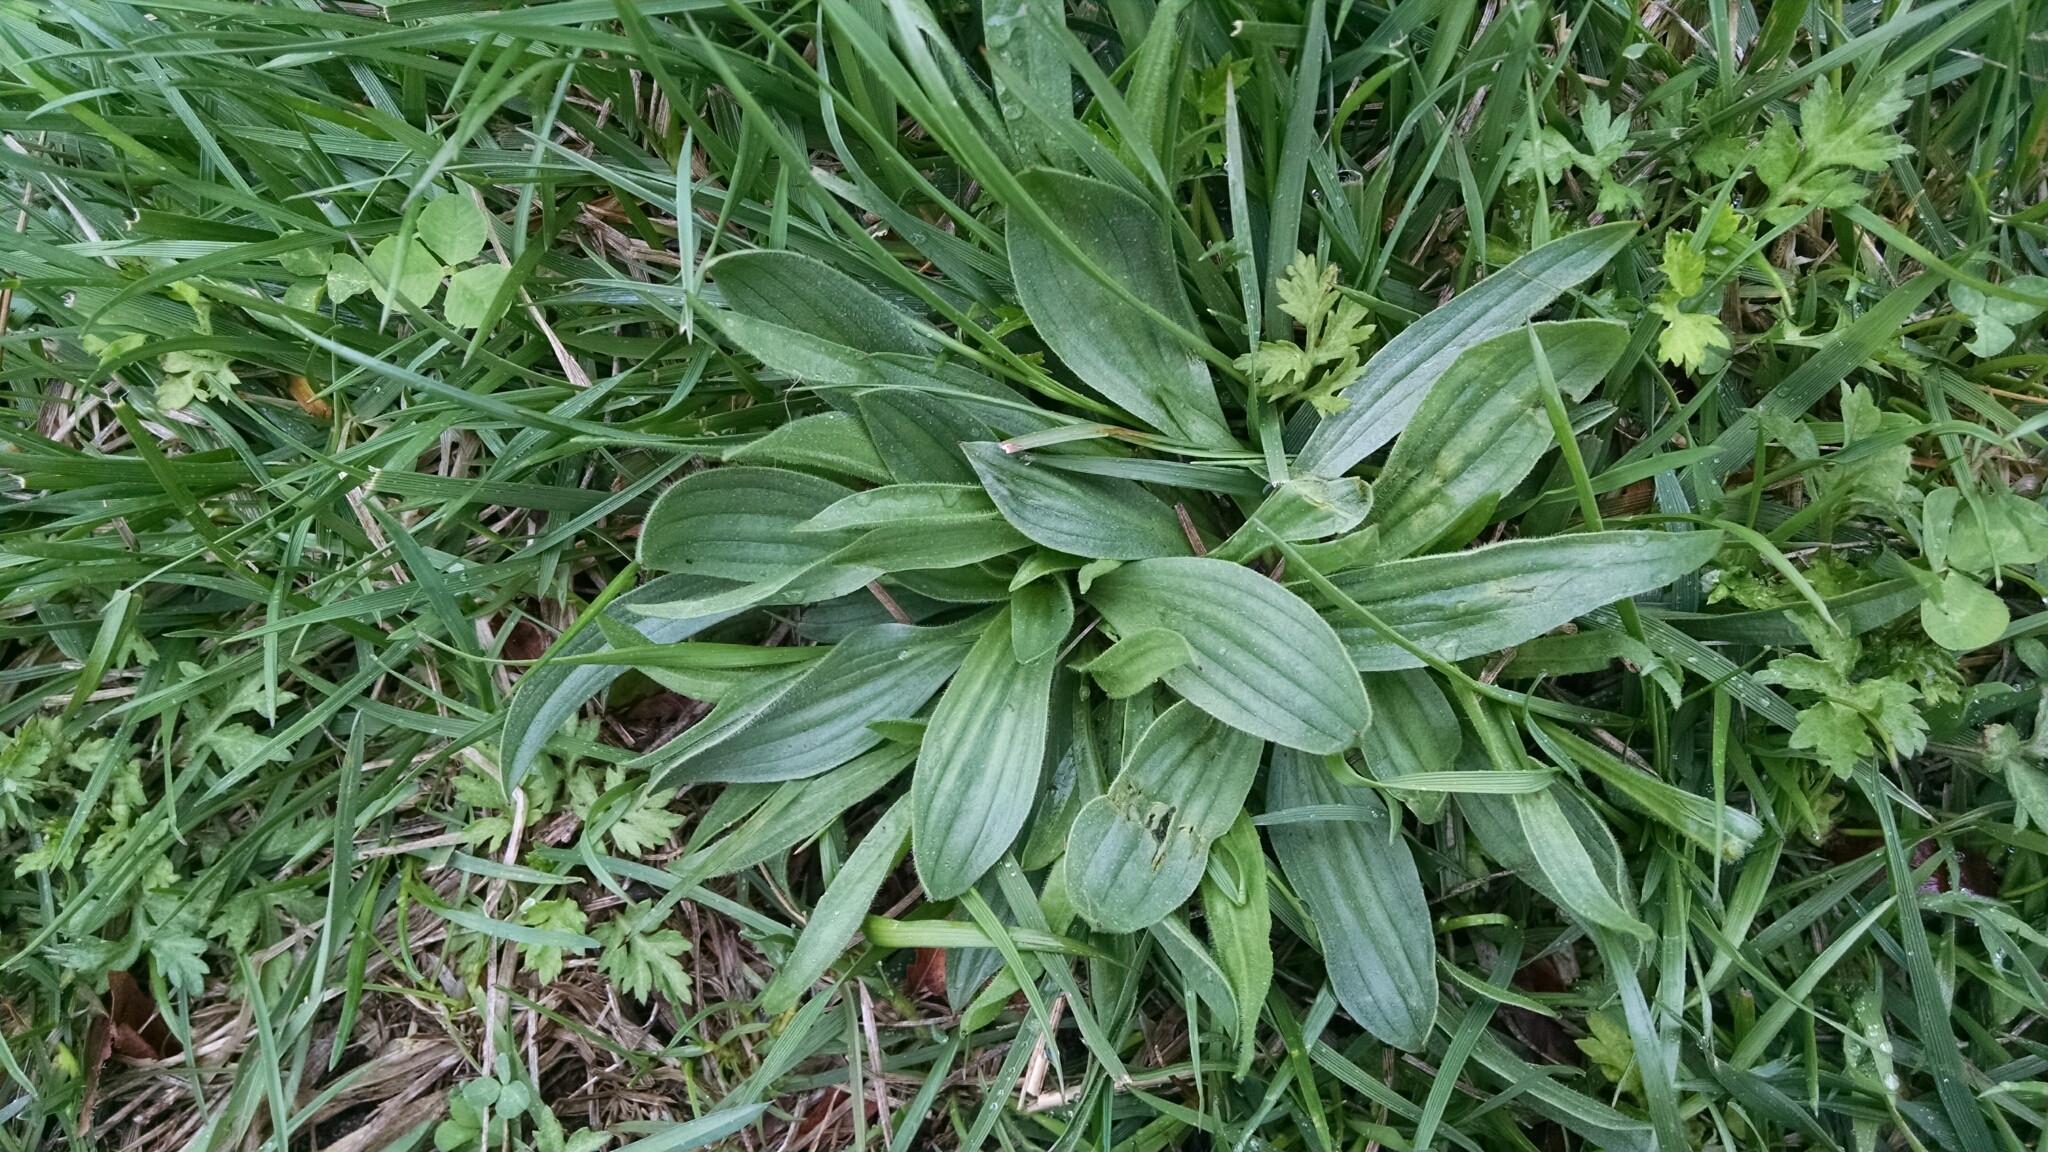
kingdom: Plantae
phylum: Tracheophyta
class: Magnoliopsida
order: Lamiales
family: Plantaginaceae
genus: Plantago
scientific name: Plantago lanceolata
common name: Ribwort plantain
